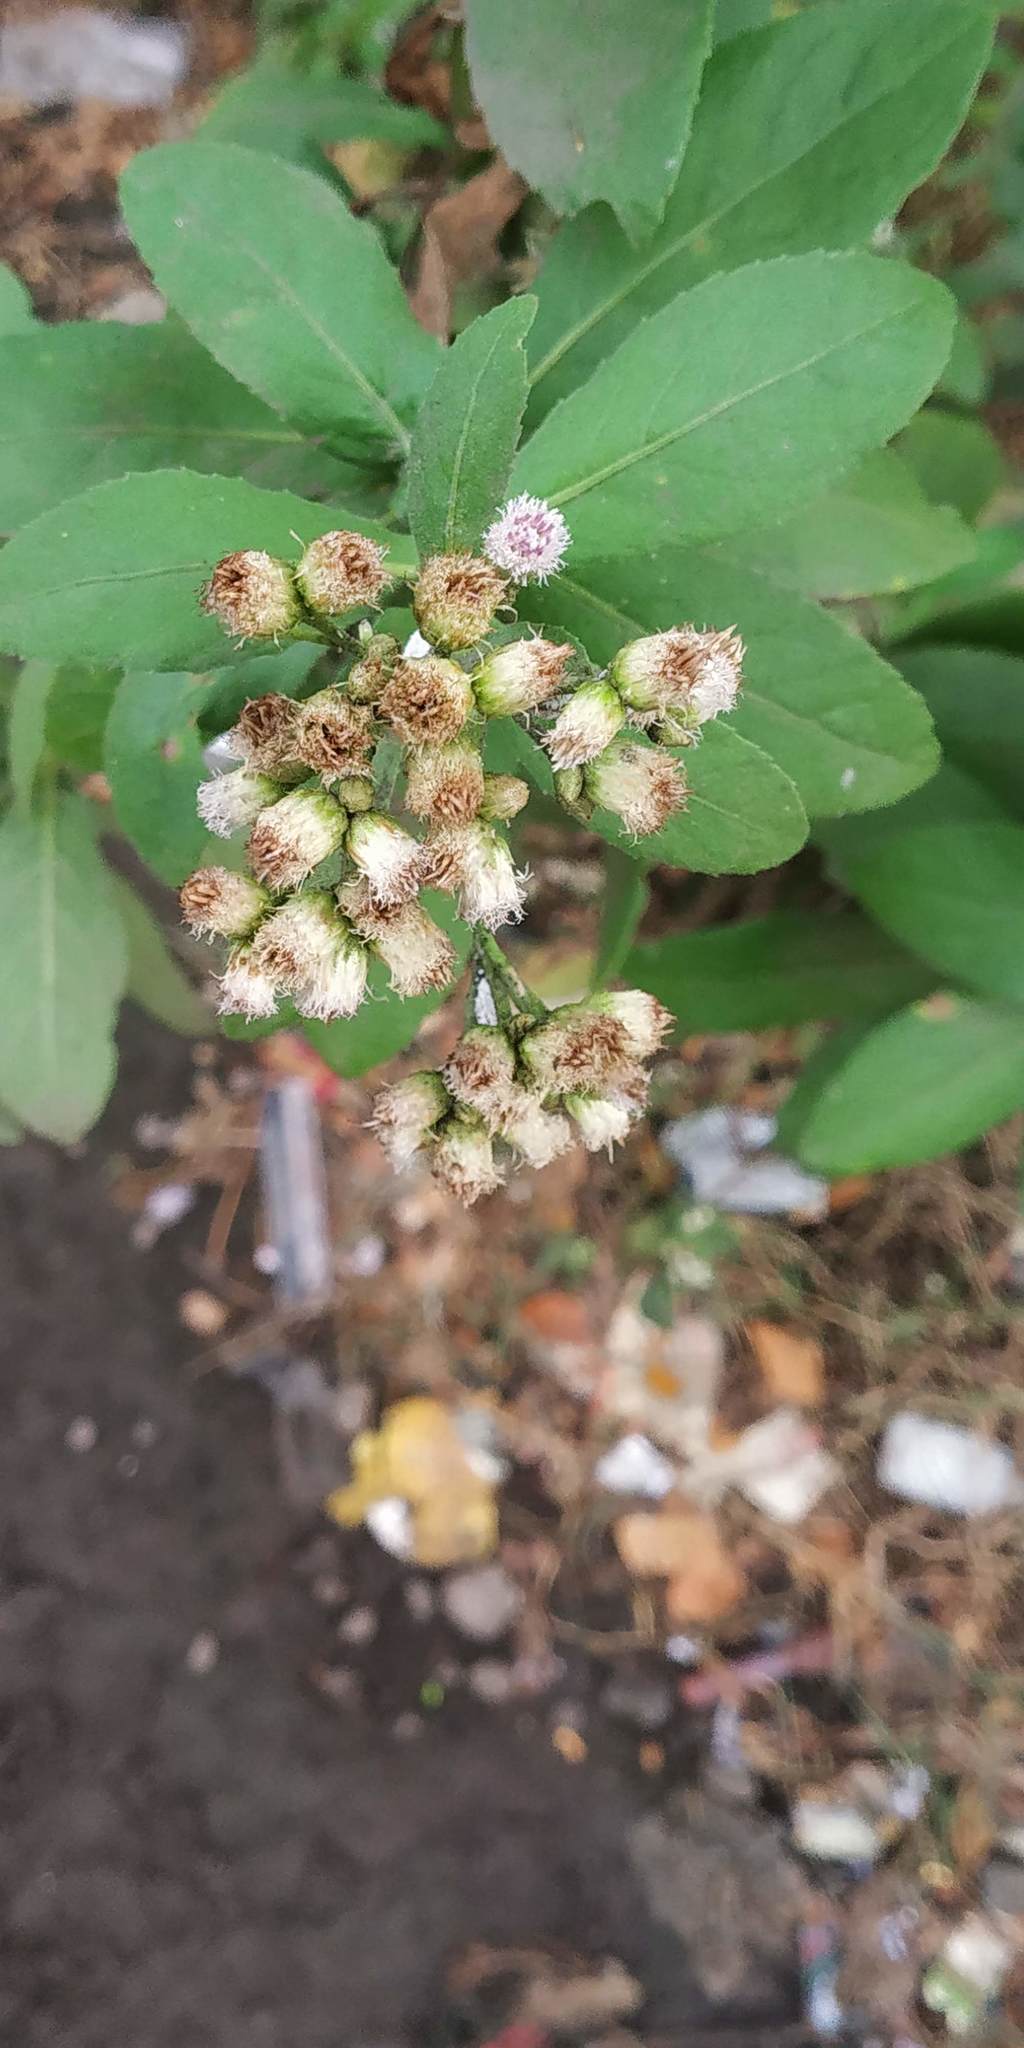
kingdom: Plantae
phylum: Tracheophyta
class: Magnoliopsida
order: Asterales
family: Asteraceae
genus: Pluchea
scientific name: Pluchea ovalis
